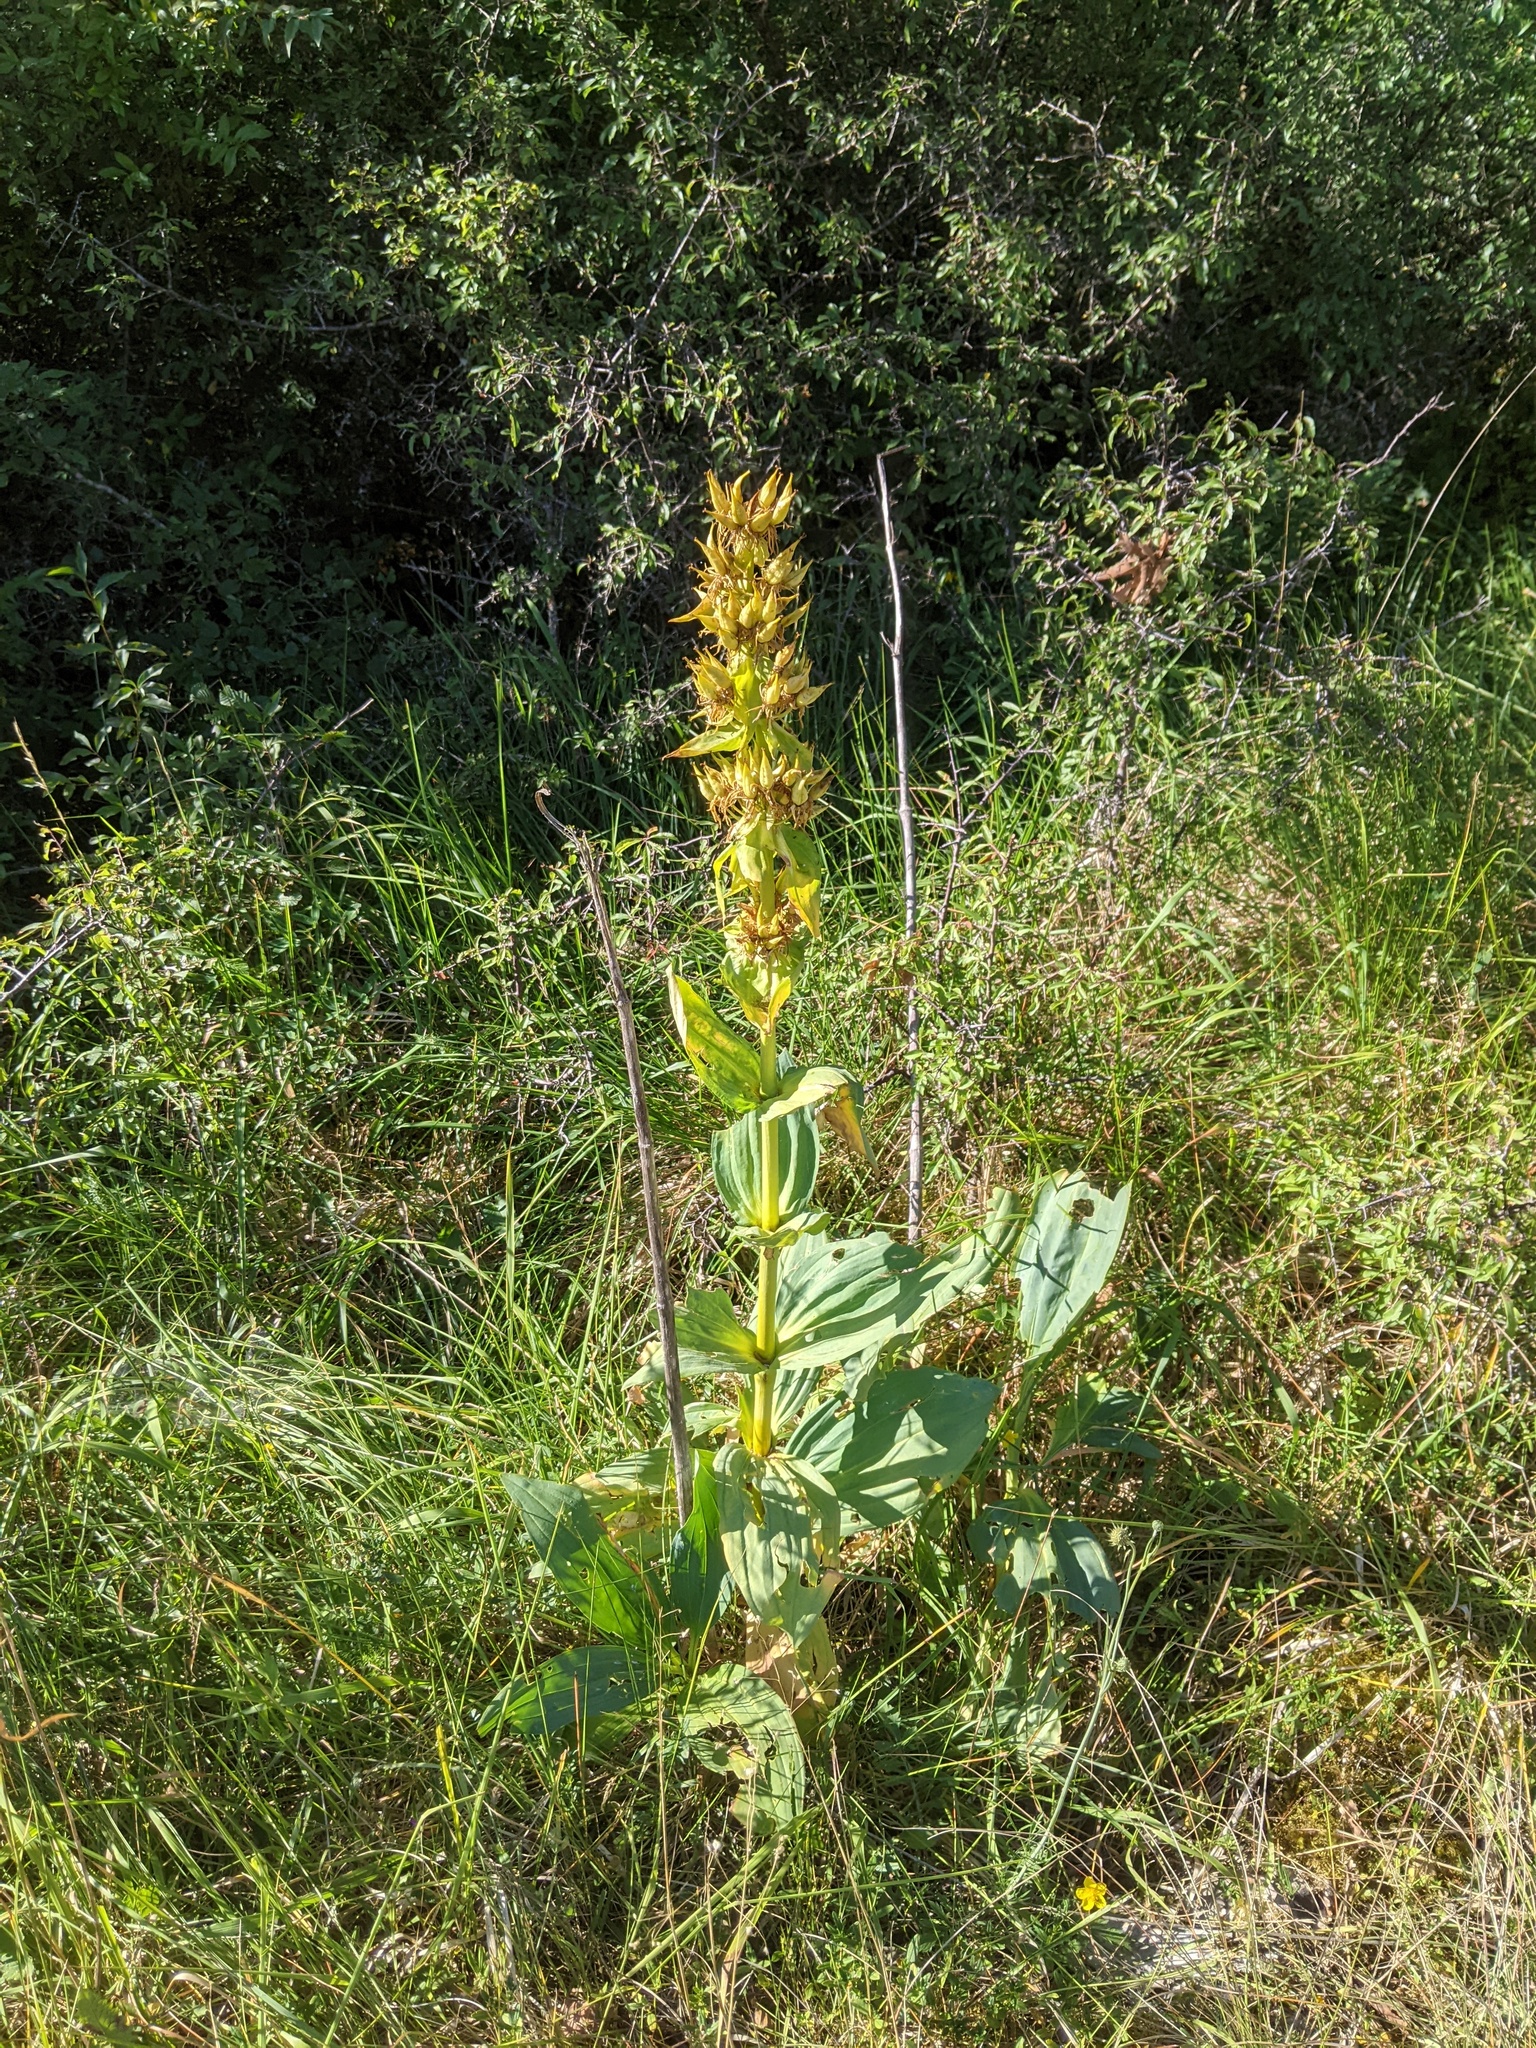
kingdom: Plantae
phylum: Tracheophyta
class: Magnoliopsida
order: Gentianales
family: Gentianaceae
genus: Gentiana
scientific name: Gentiana lutea
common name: Great yellow gentian
